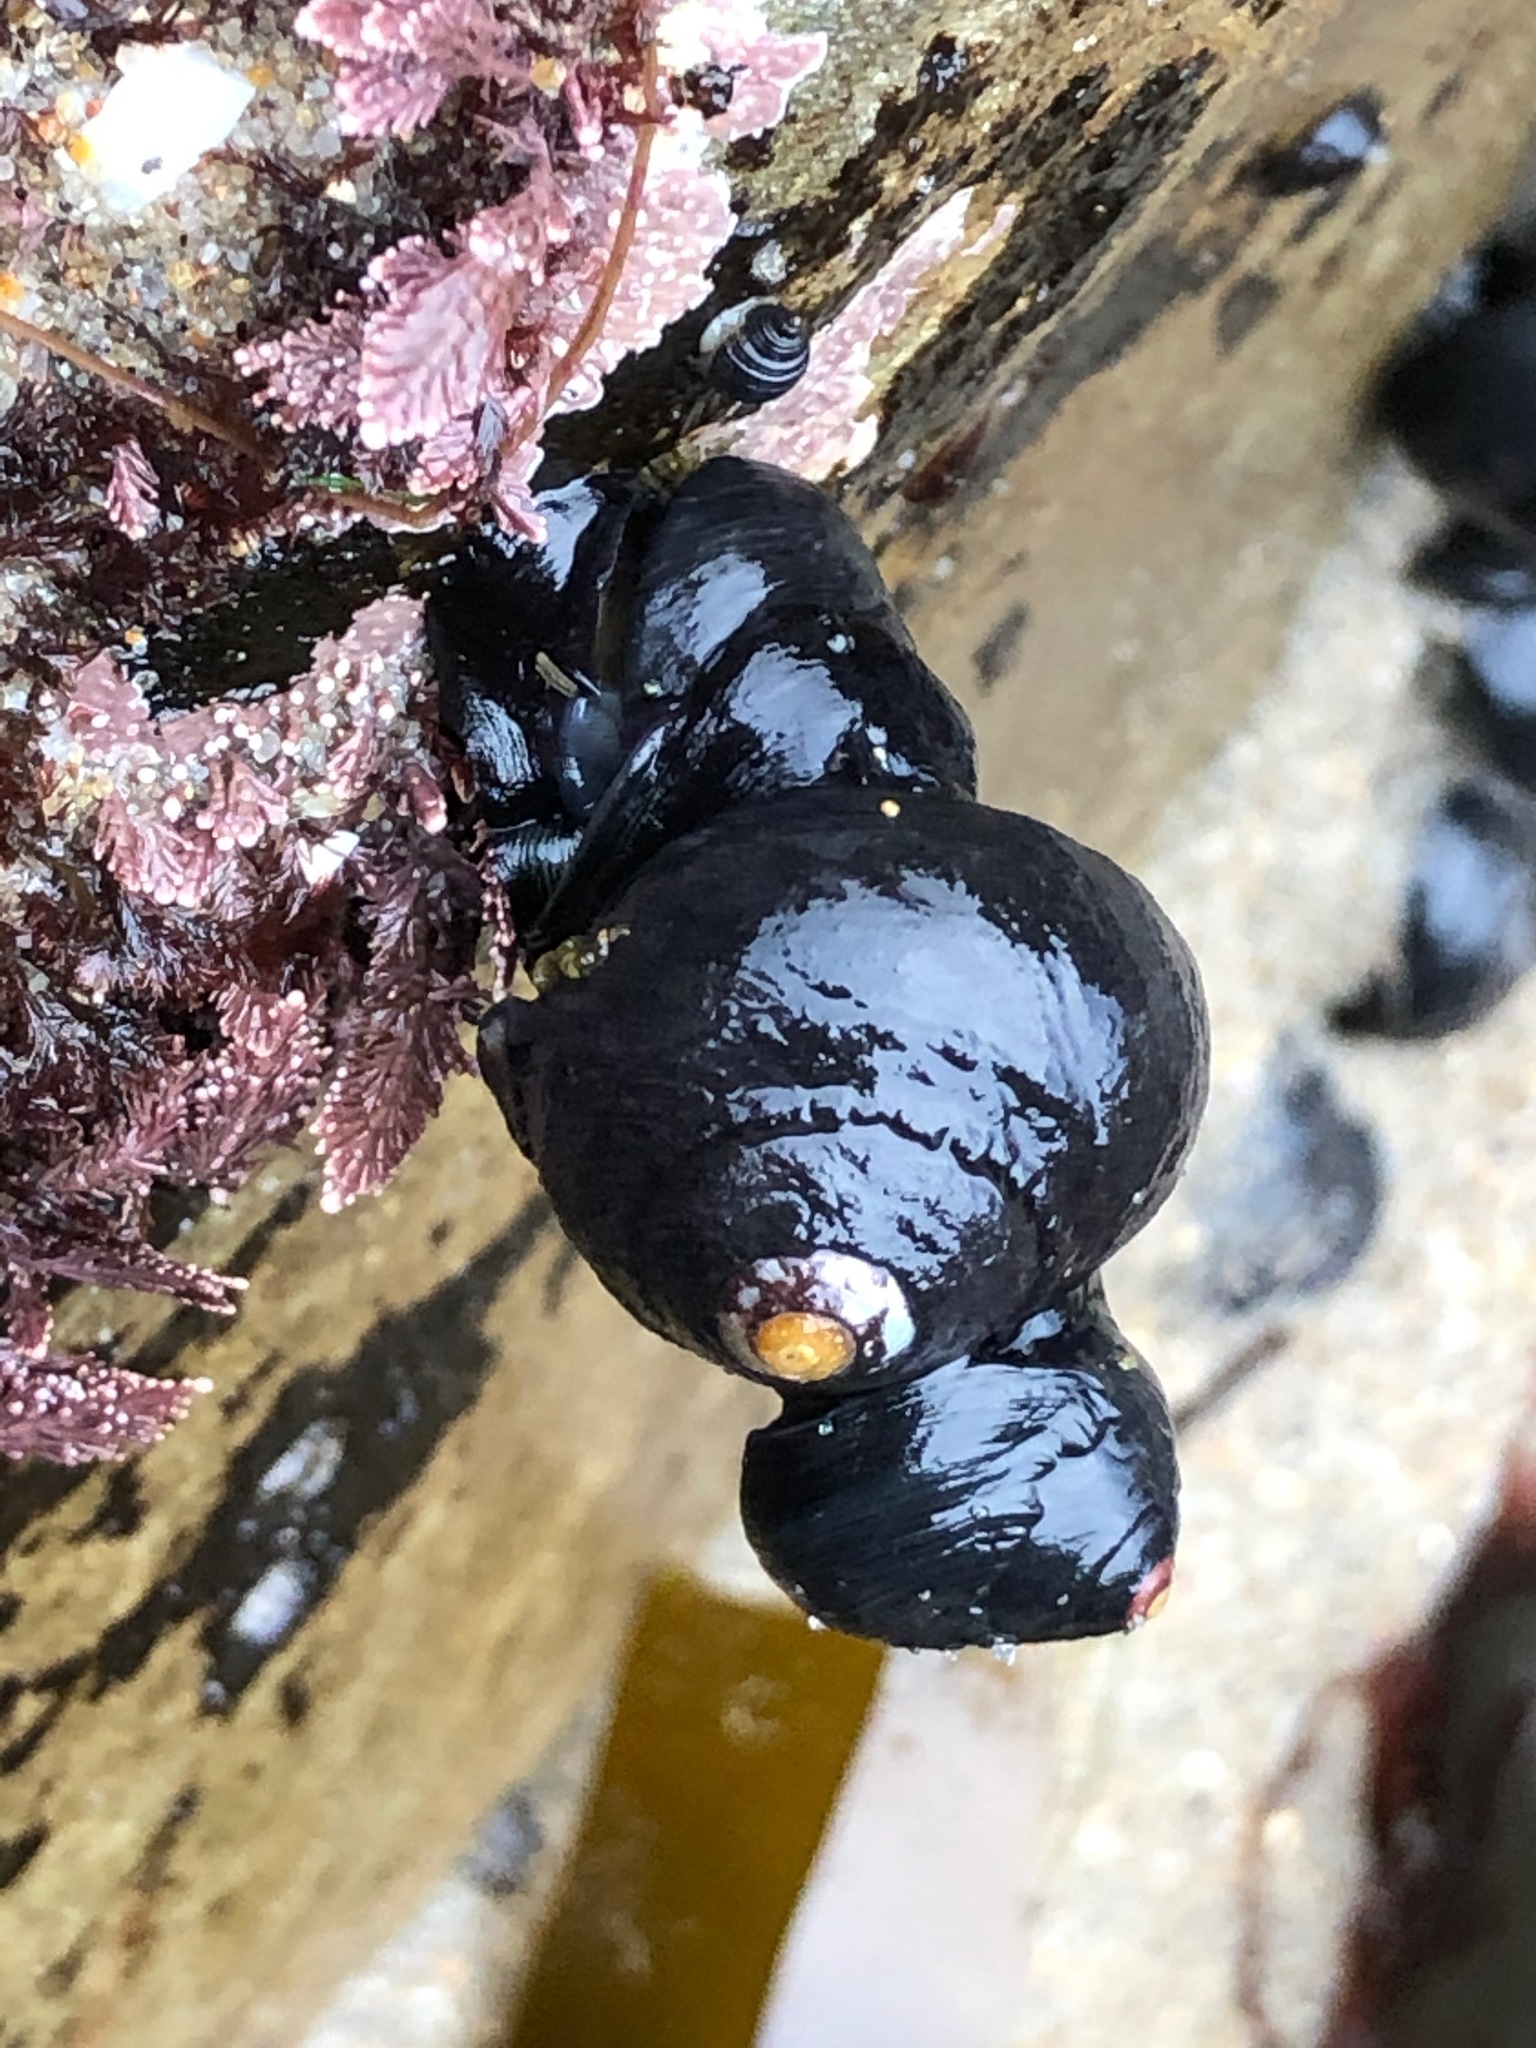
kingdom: Animalia
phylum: Mollusca
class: Gastropoda
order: Trochida
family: Tegulidae
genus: Tegula
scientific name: Tegula funebralis
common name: Black tegula
